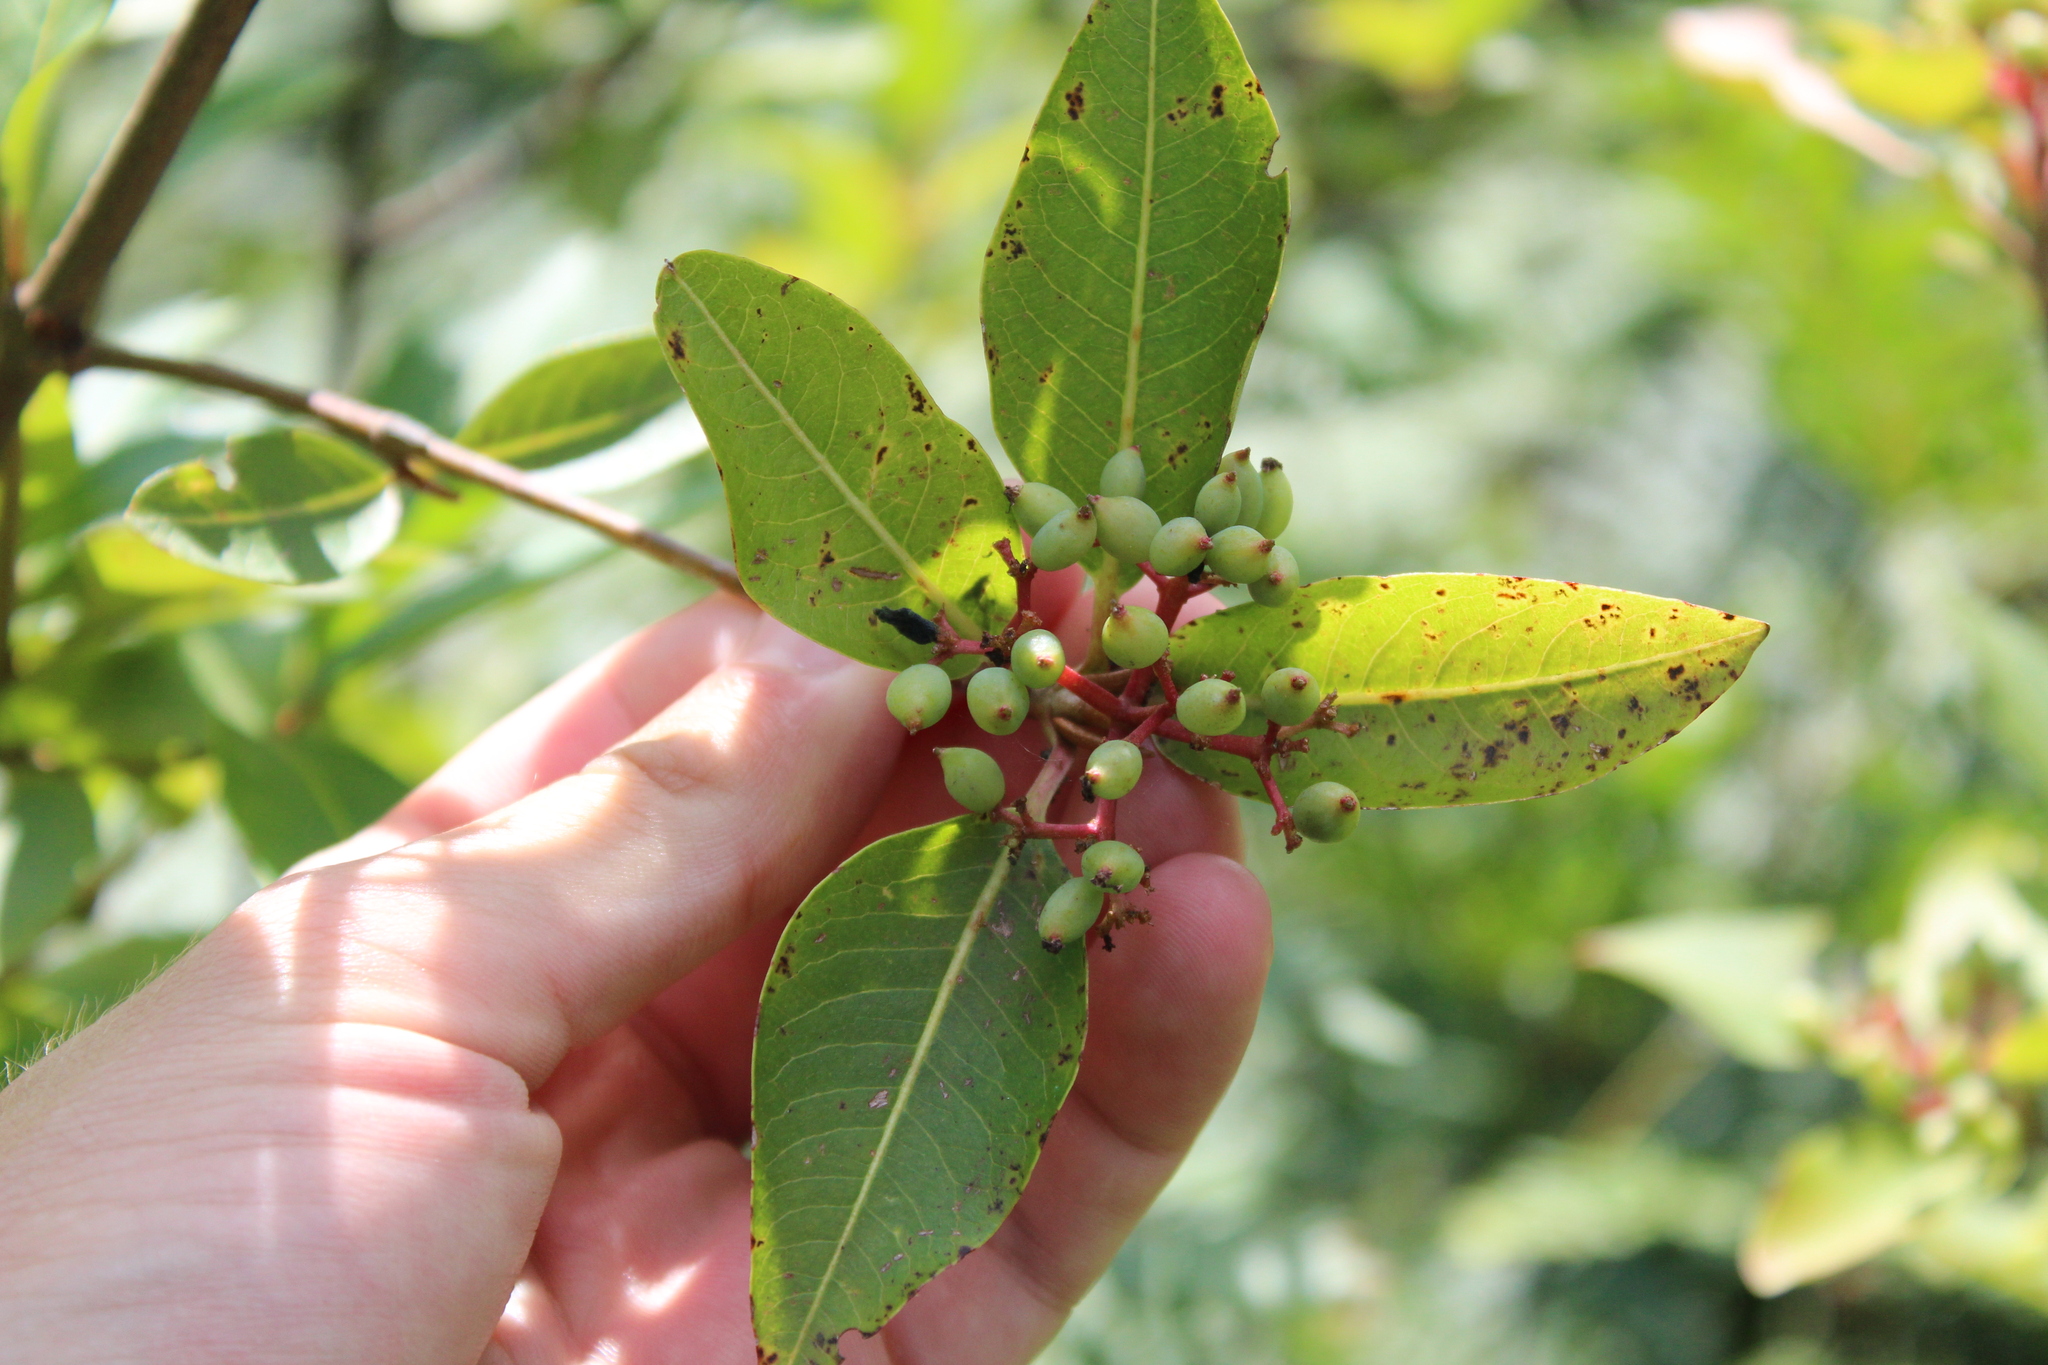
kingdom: Plantae
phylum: Tracheophyta
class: Magnoliopsida
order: Dipsacales
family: Viburnaceae
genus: Viburnum
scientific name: Viburnum cassinoides
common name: Swamp haw
